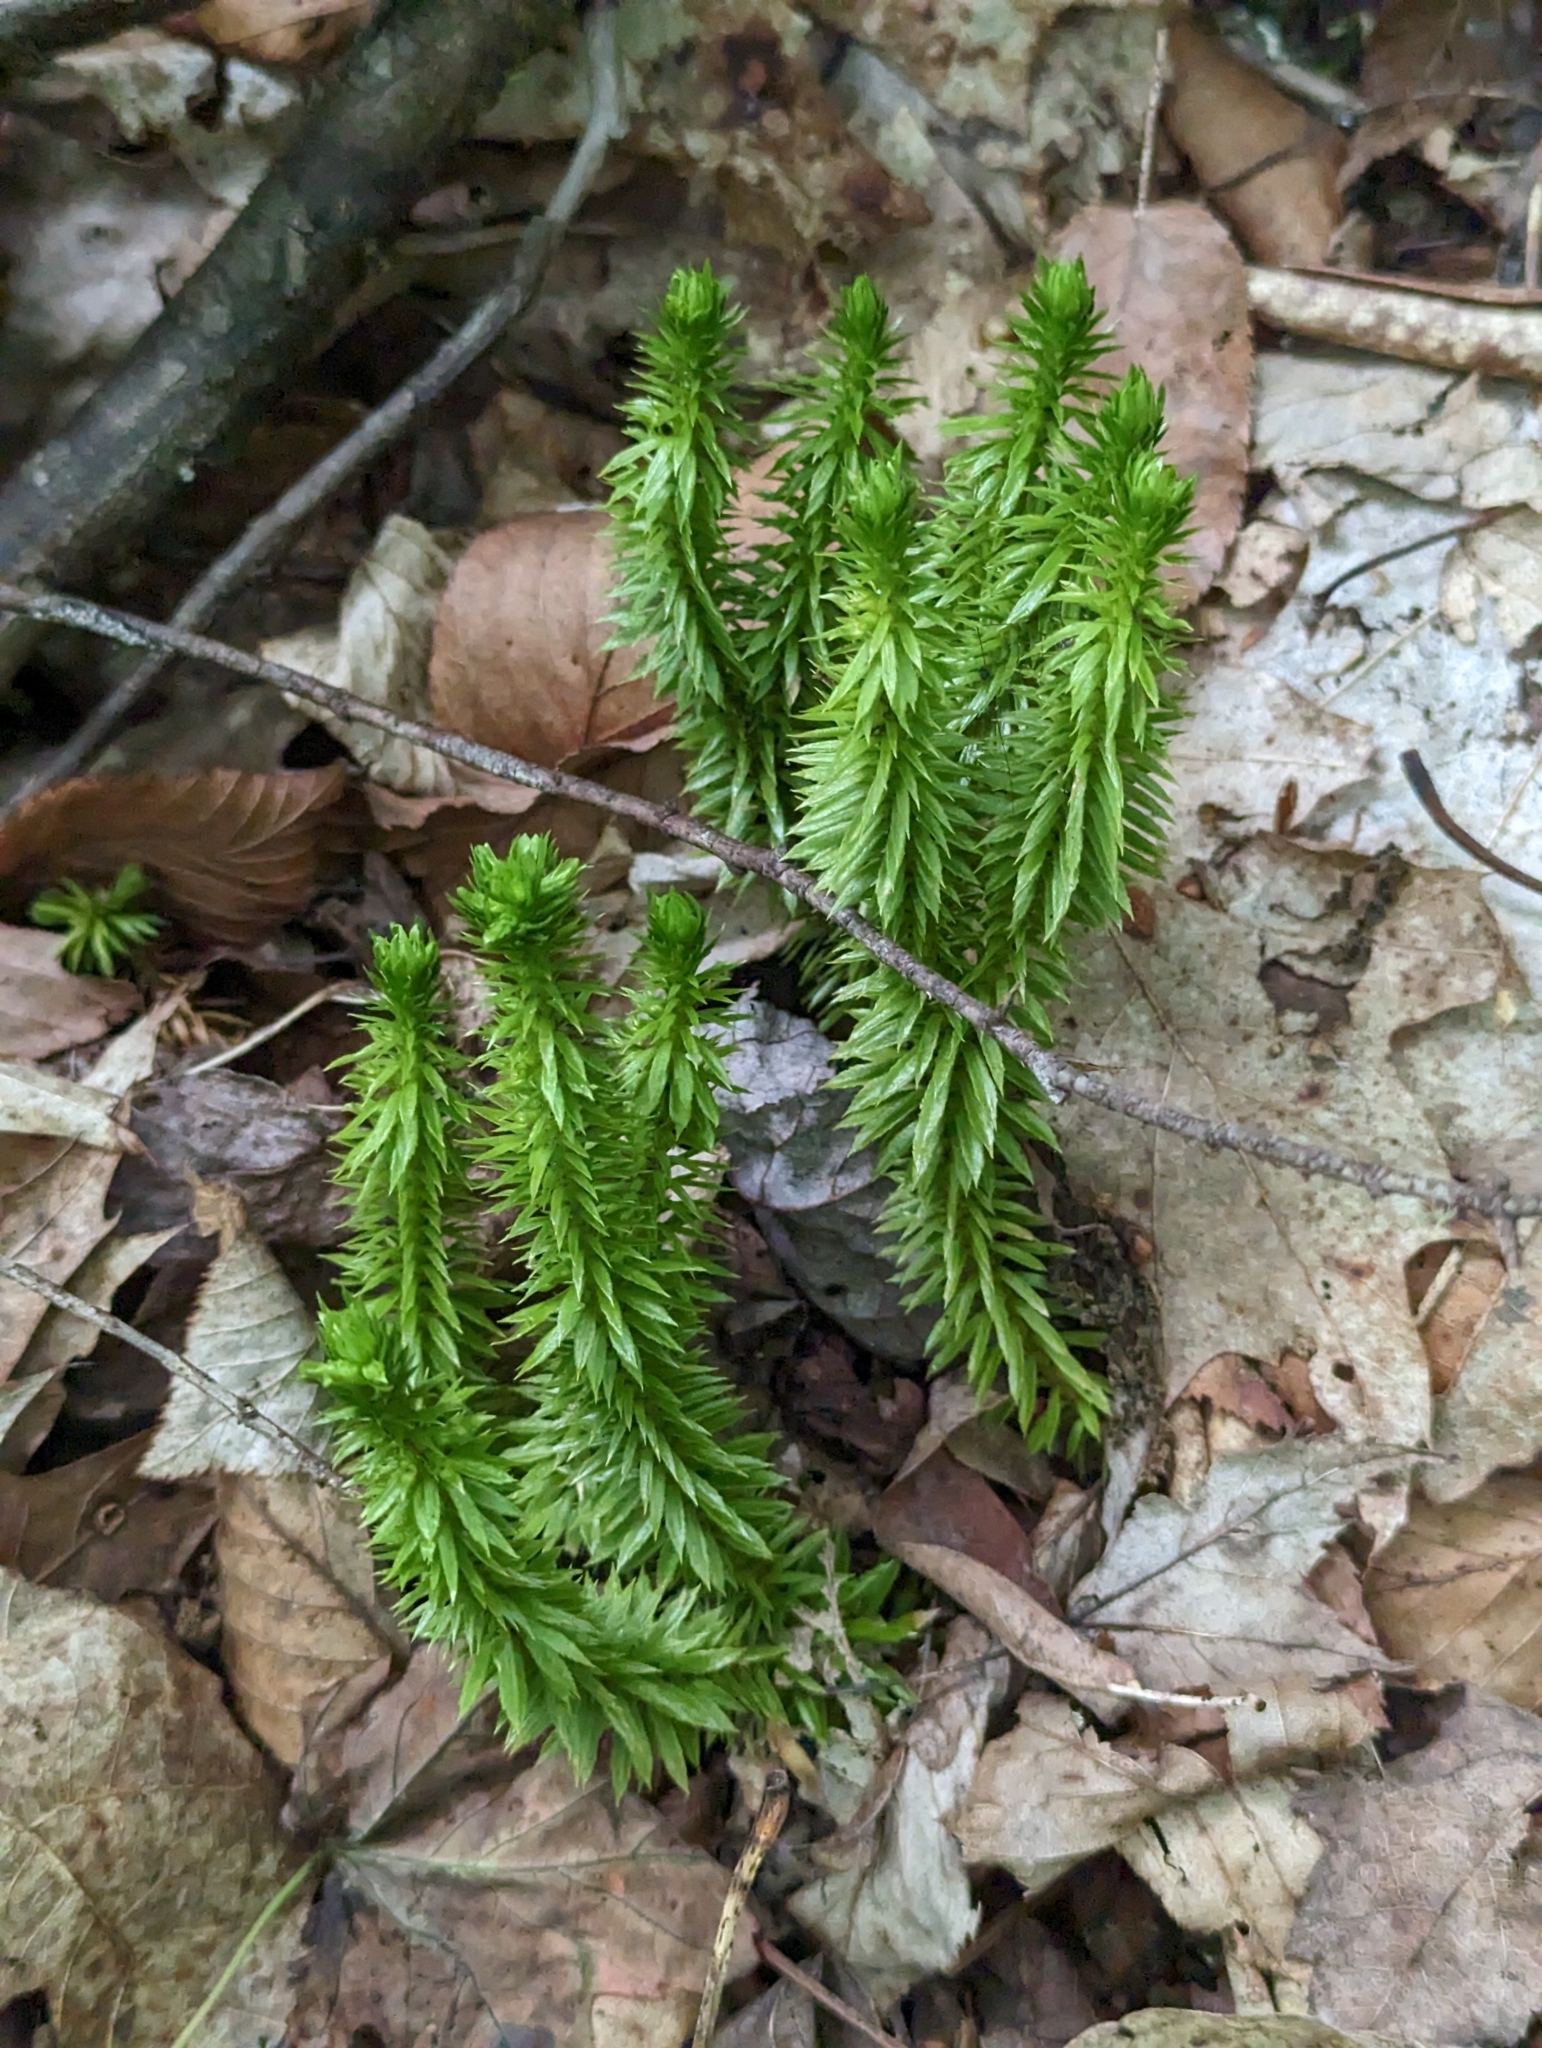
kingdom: Plantae
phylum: Tracheophyta
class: Lycopodiopsida
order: Lycopodiales
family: Lycopodiaceae
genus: Huperzia
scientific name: Huperzia lucidula
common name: Shining clubmoss
